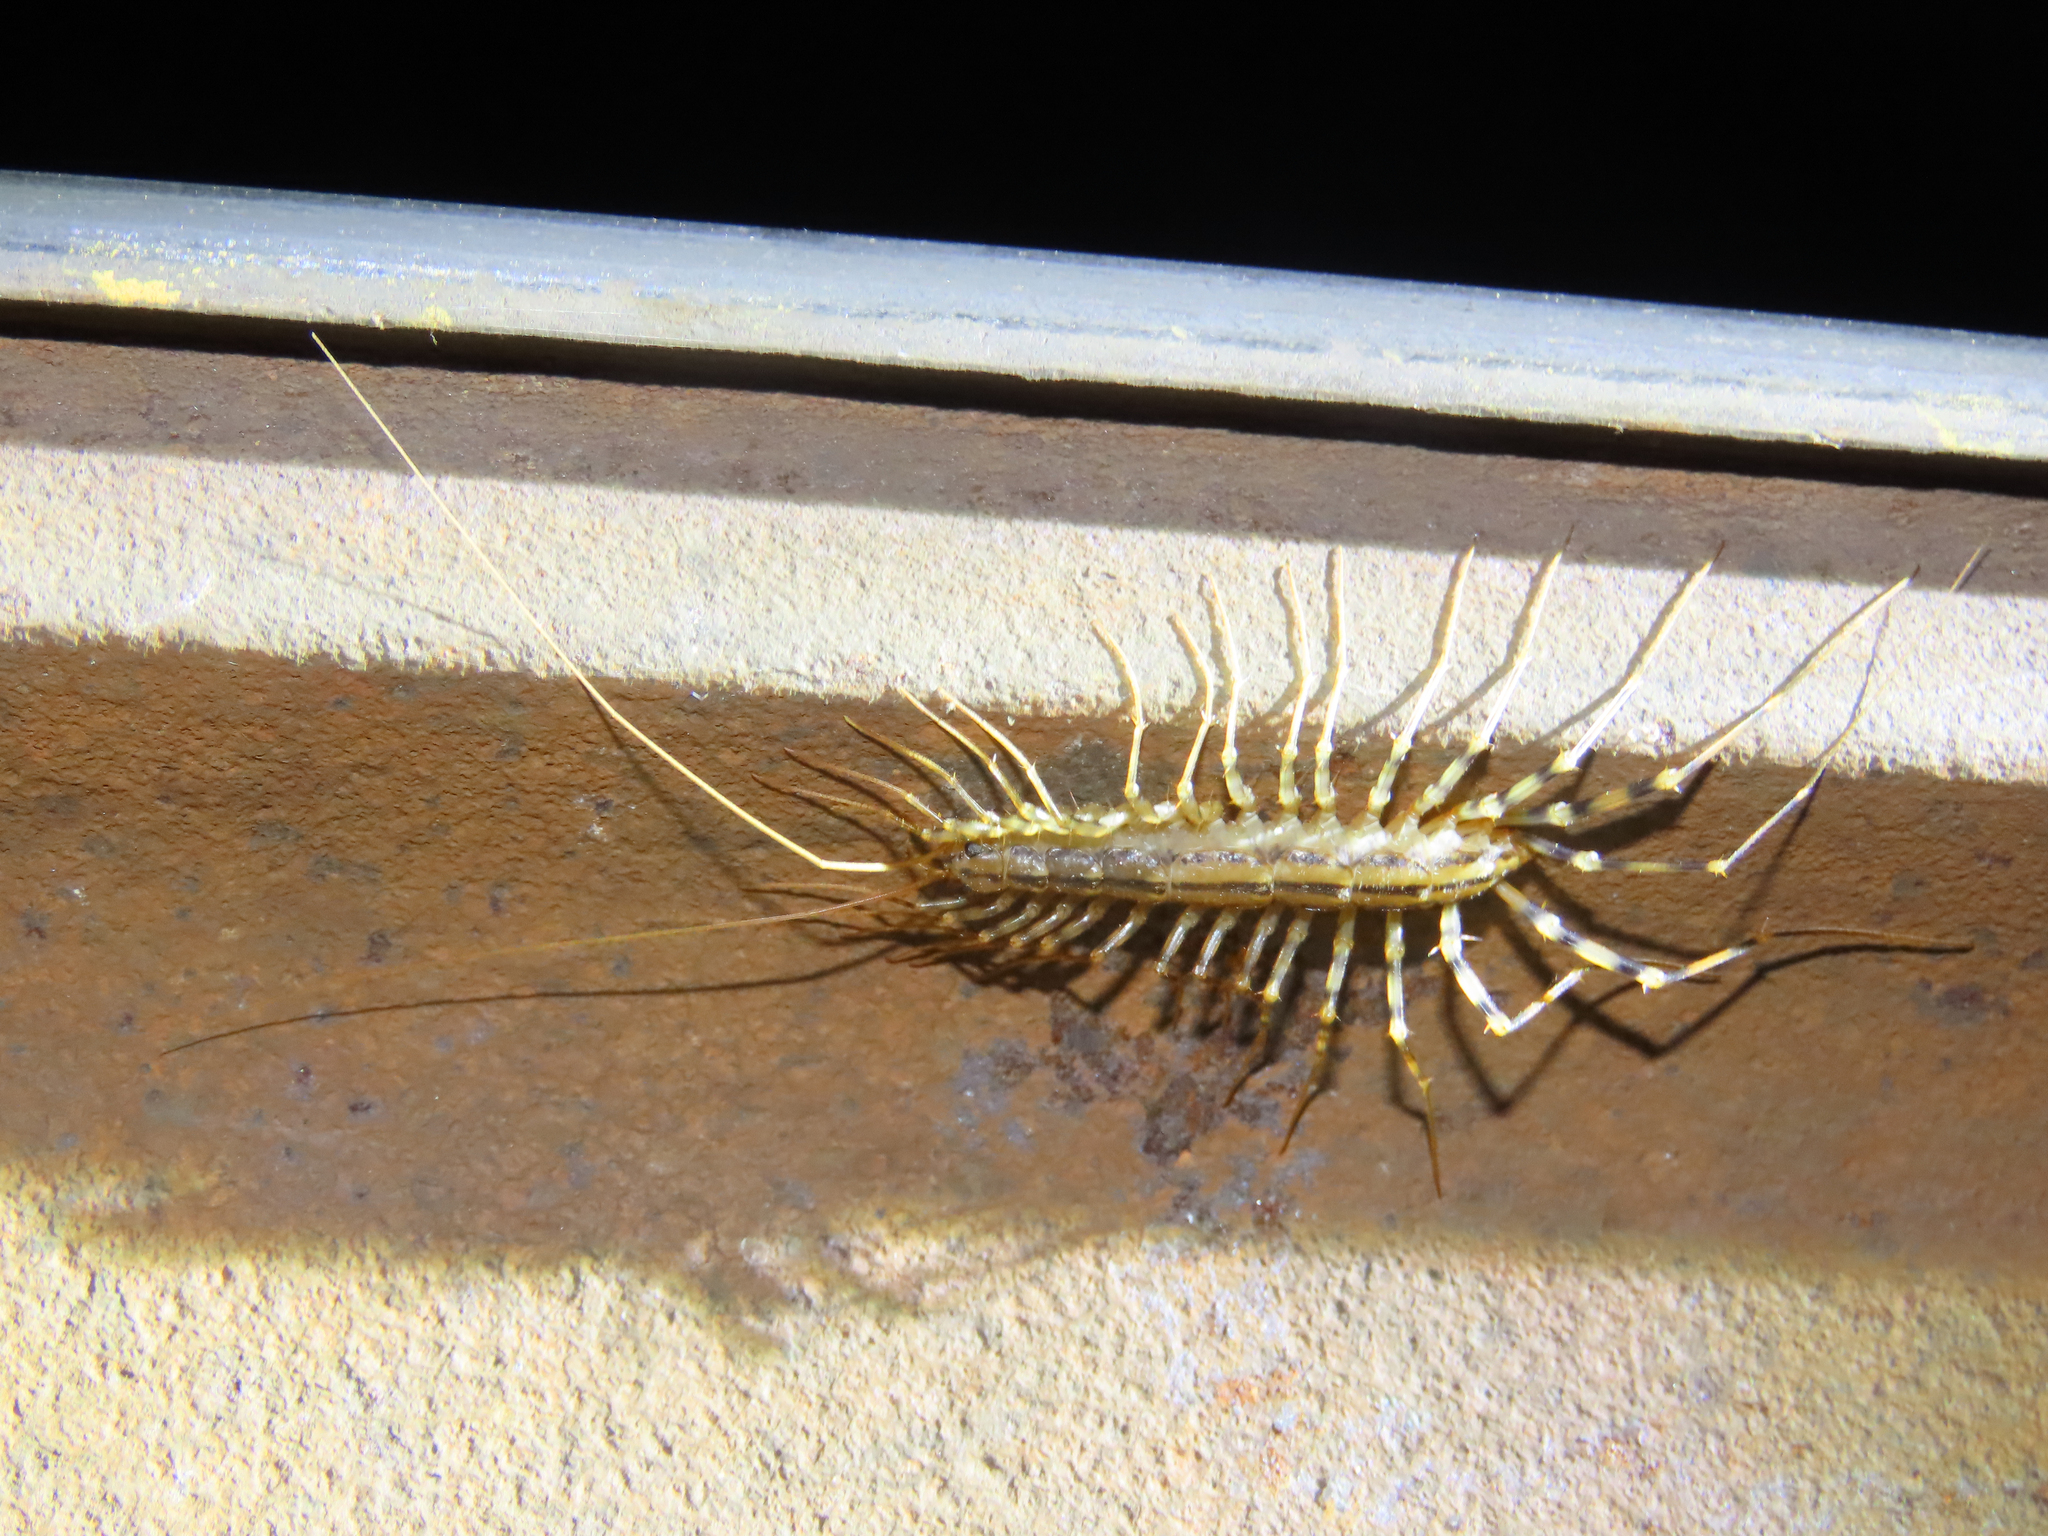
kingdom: Animalia
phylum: Arthropoda
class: Chilopoda
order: Scutigeromorpha
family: Scutigeridae
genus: Scutigera
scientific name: Scutigera coleoptrata
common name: House centipede
